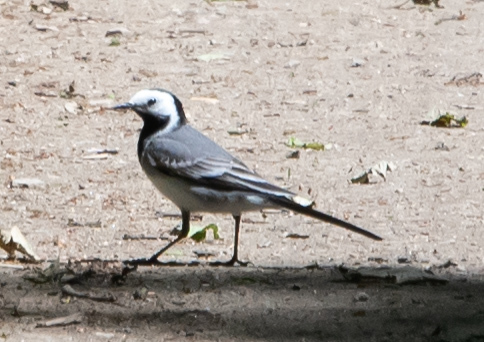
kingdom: Animalia
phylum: Chordata
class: Aves
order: Passeriformes
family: Motacillidae
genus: Motacilla
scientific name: Motacilla alba
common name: White wagtail
